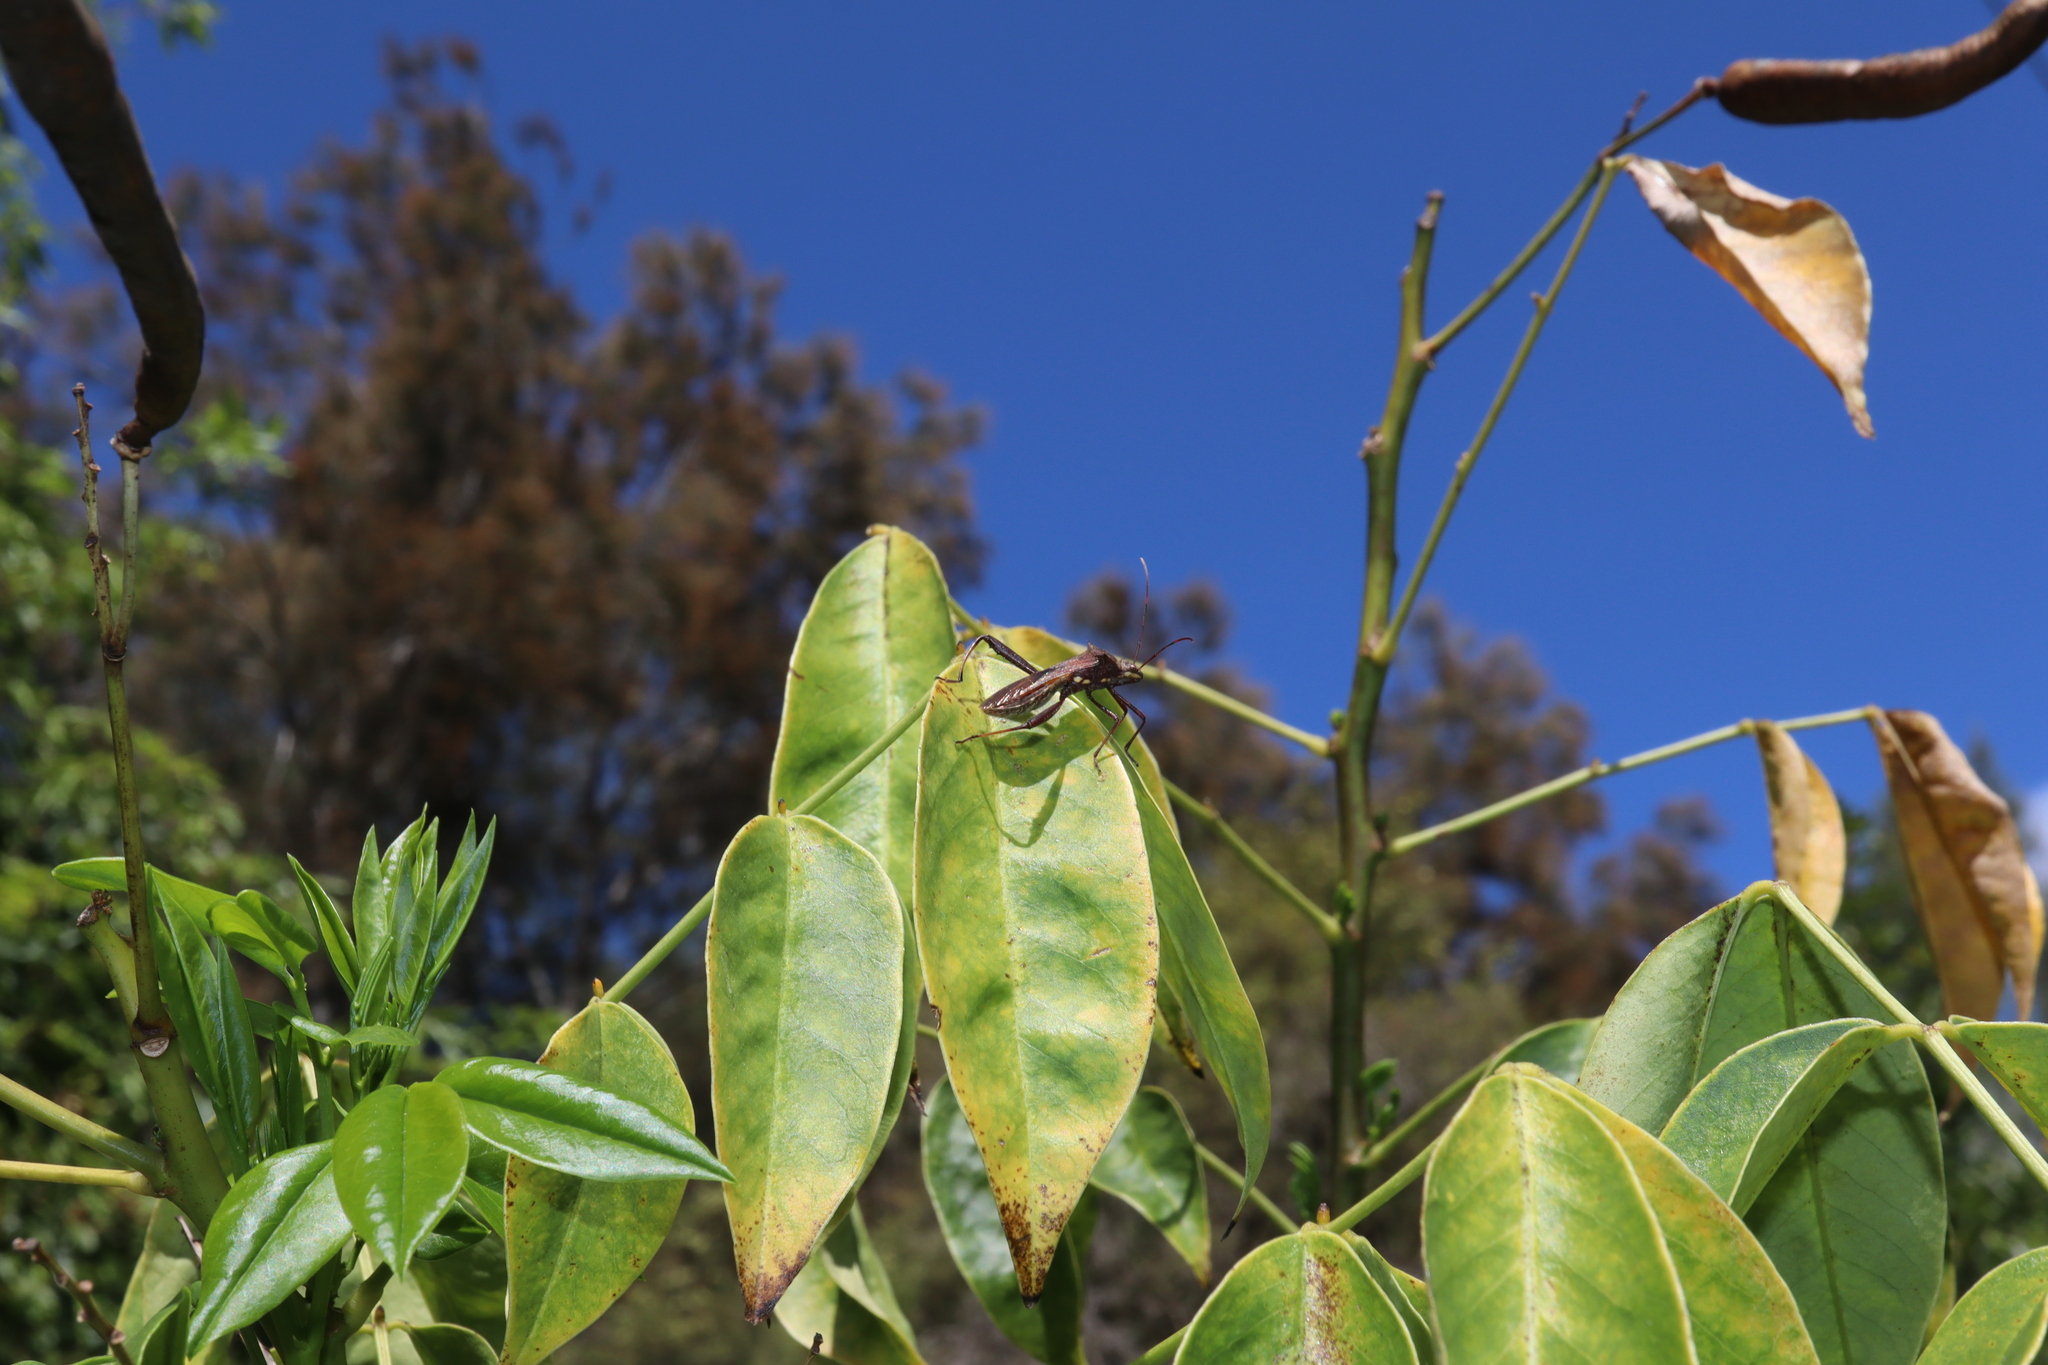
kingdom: Animalia
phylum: Arthropoda
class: Insecta
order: Hemiptera
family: Alydidae
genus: Riptortus
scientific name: Riptortus serripes
